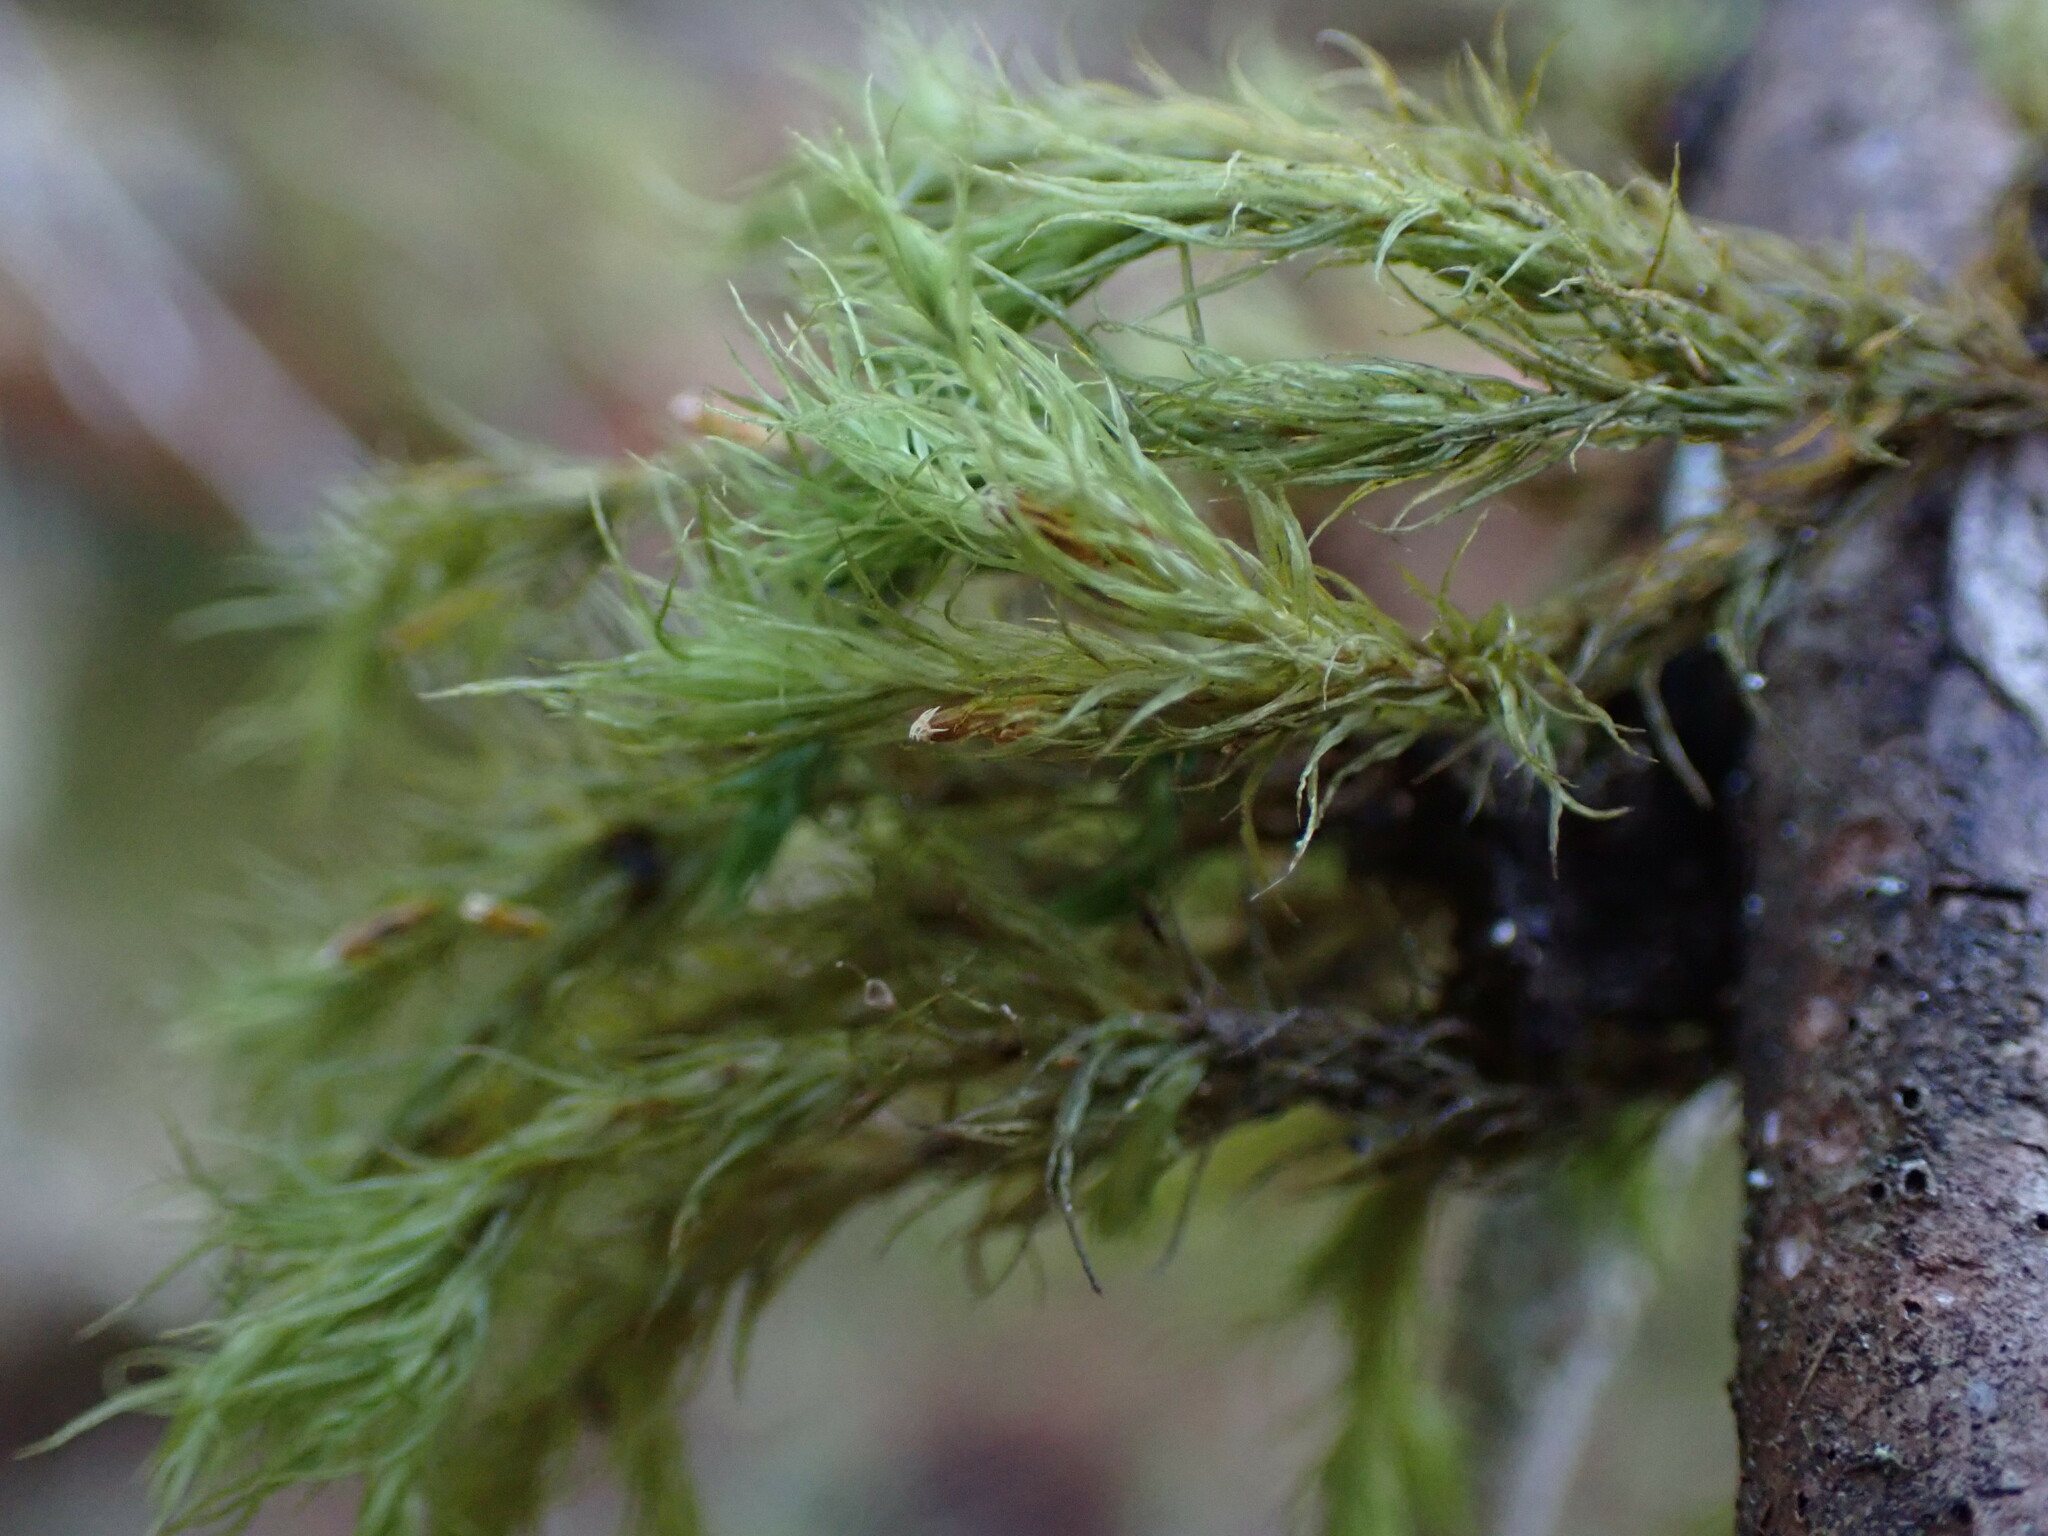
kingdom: Plantae
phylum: Bryophyta
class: Bryopsida
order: Orthotrichales
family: Orthotrichaceae
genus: Pulvigera
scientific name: Pulvigera papillosa
